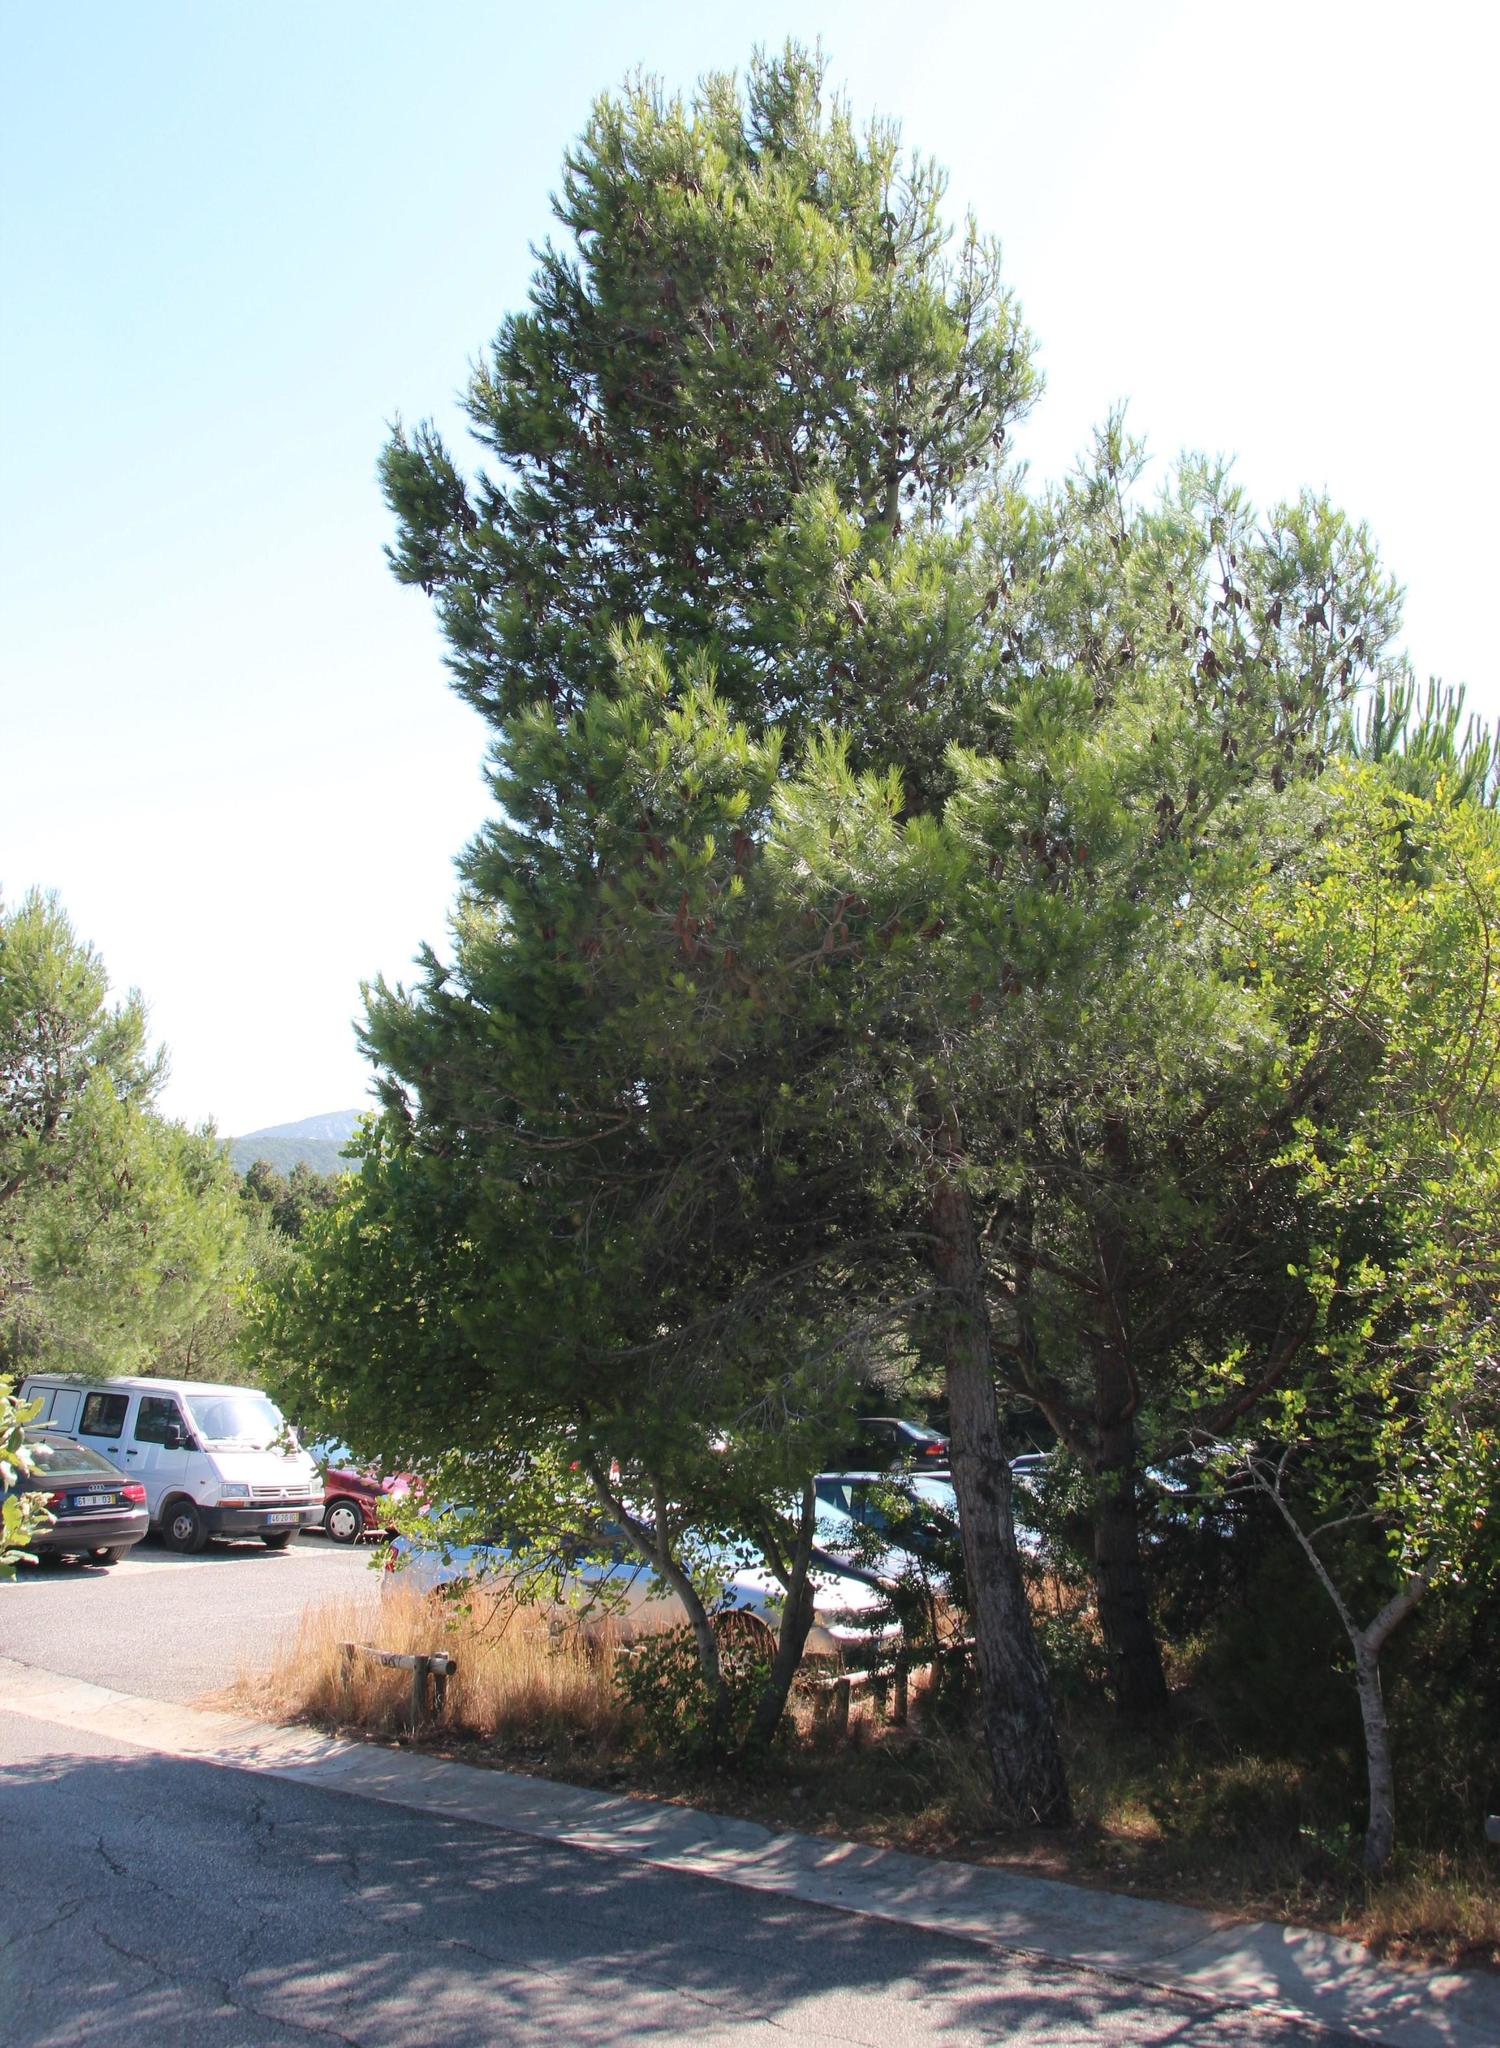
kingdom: Plantae
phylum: Tracheophyta
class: Pinopsida
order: Pinales
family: Pinaceae
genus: Pinus
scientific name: Pinus halepensis
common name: Aleppo pine
